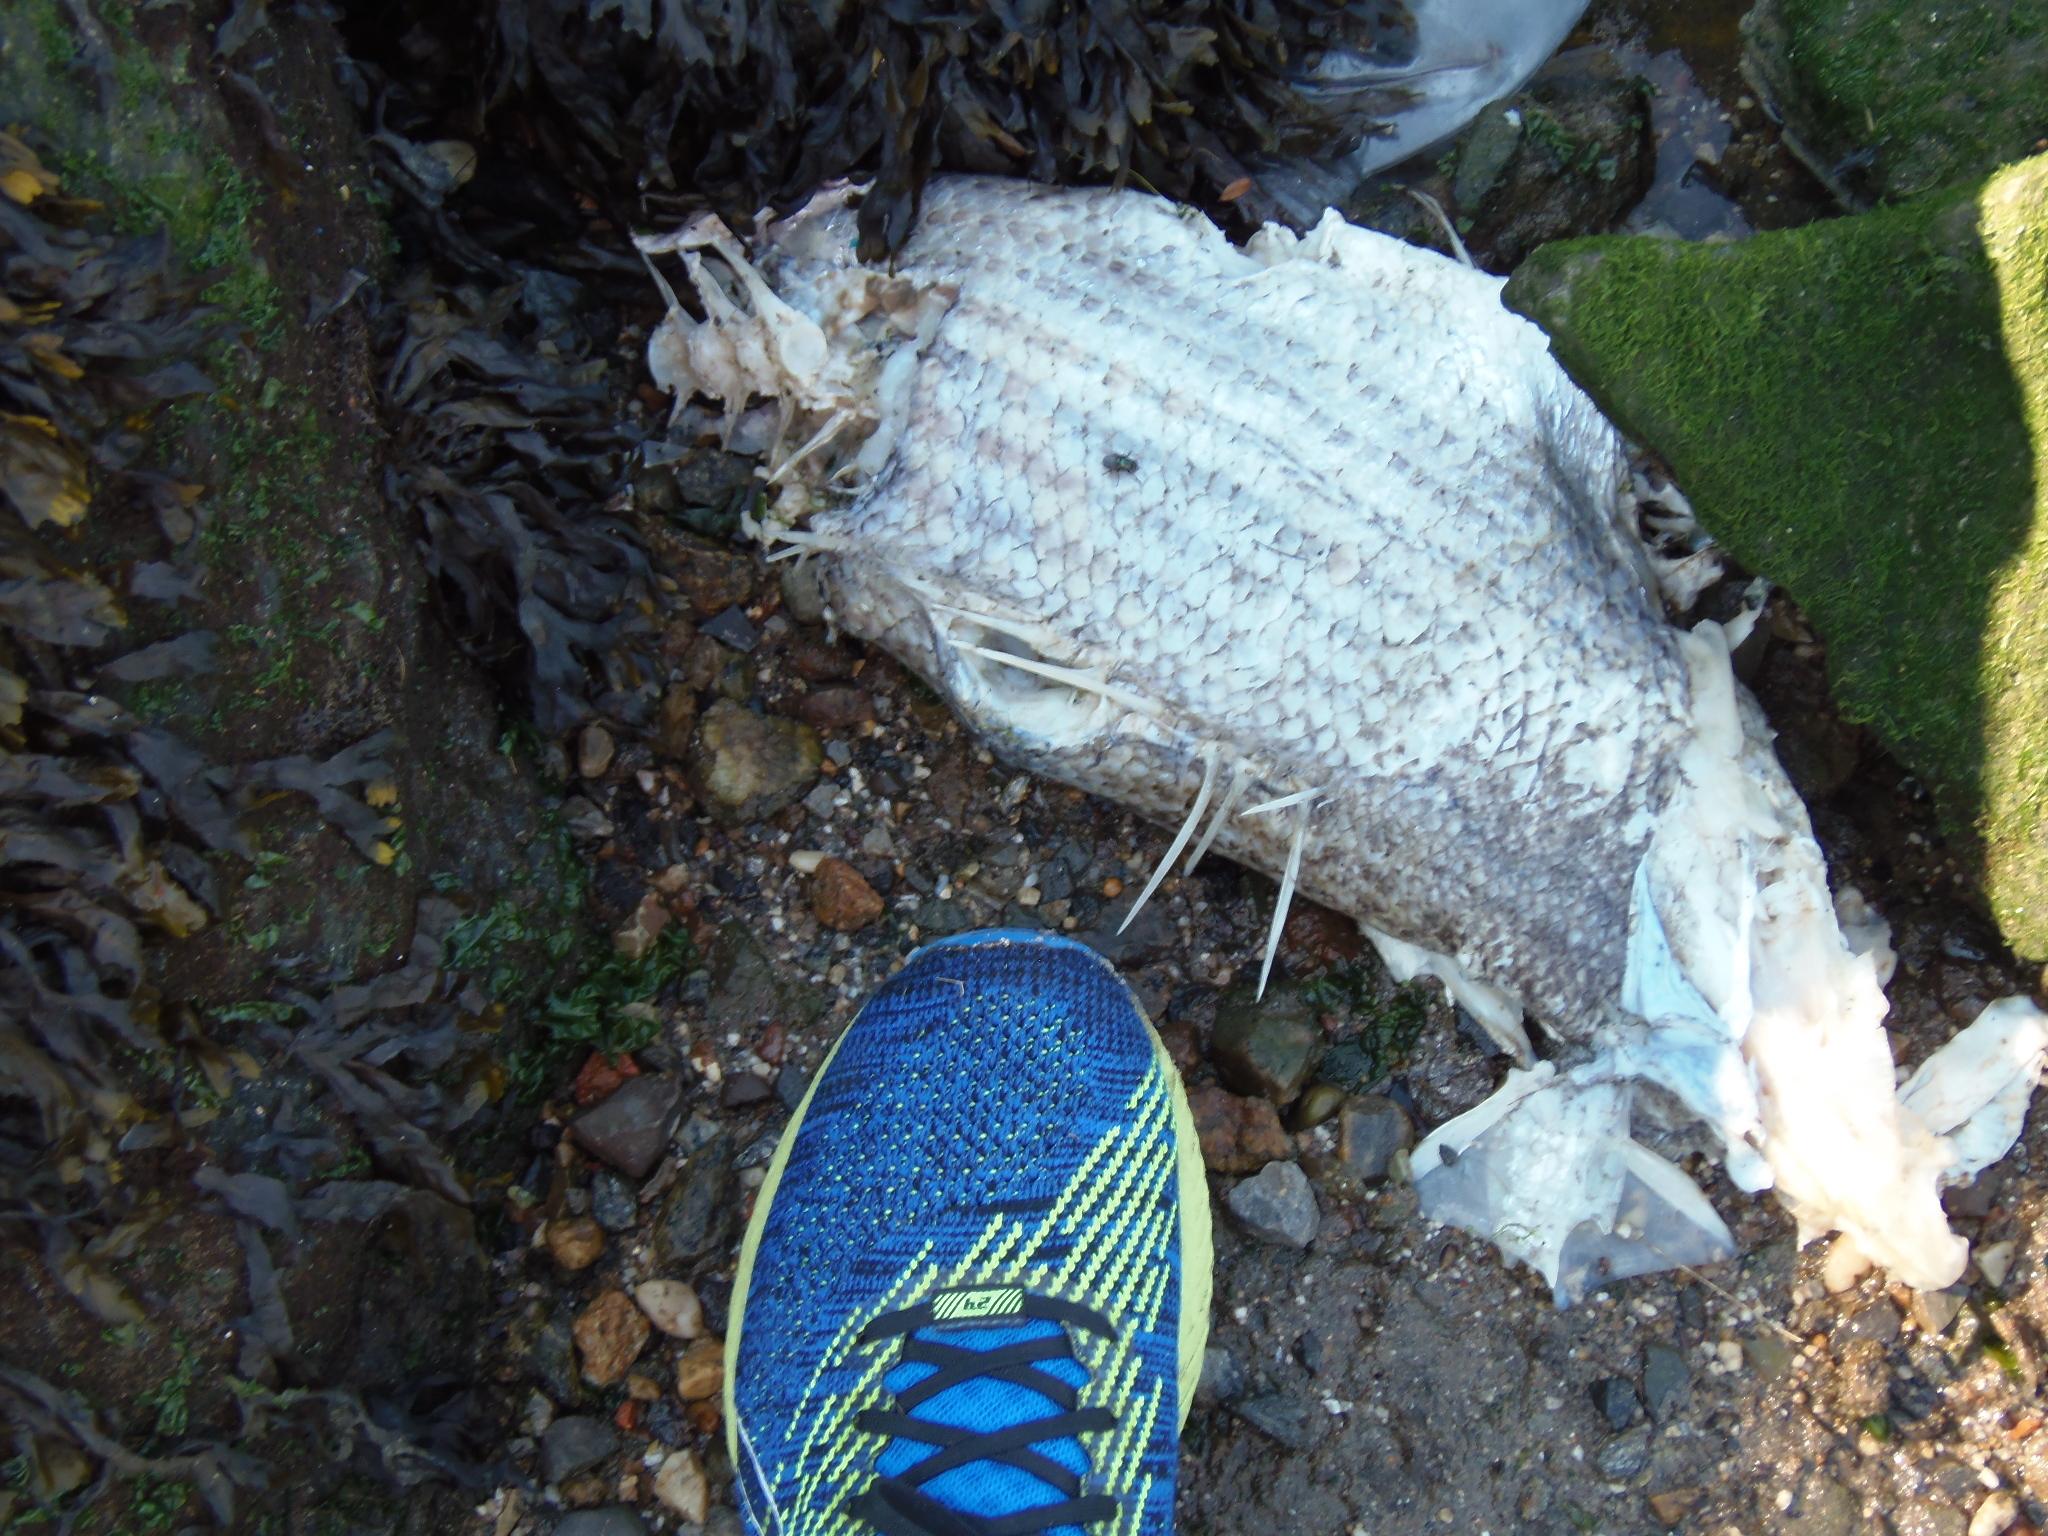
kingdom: Animalia
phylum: Chordata
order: Perciformes
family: Moronidae
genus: Morone
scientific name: Morone saxatilis
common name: Striped bass
